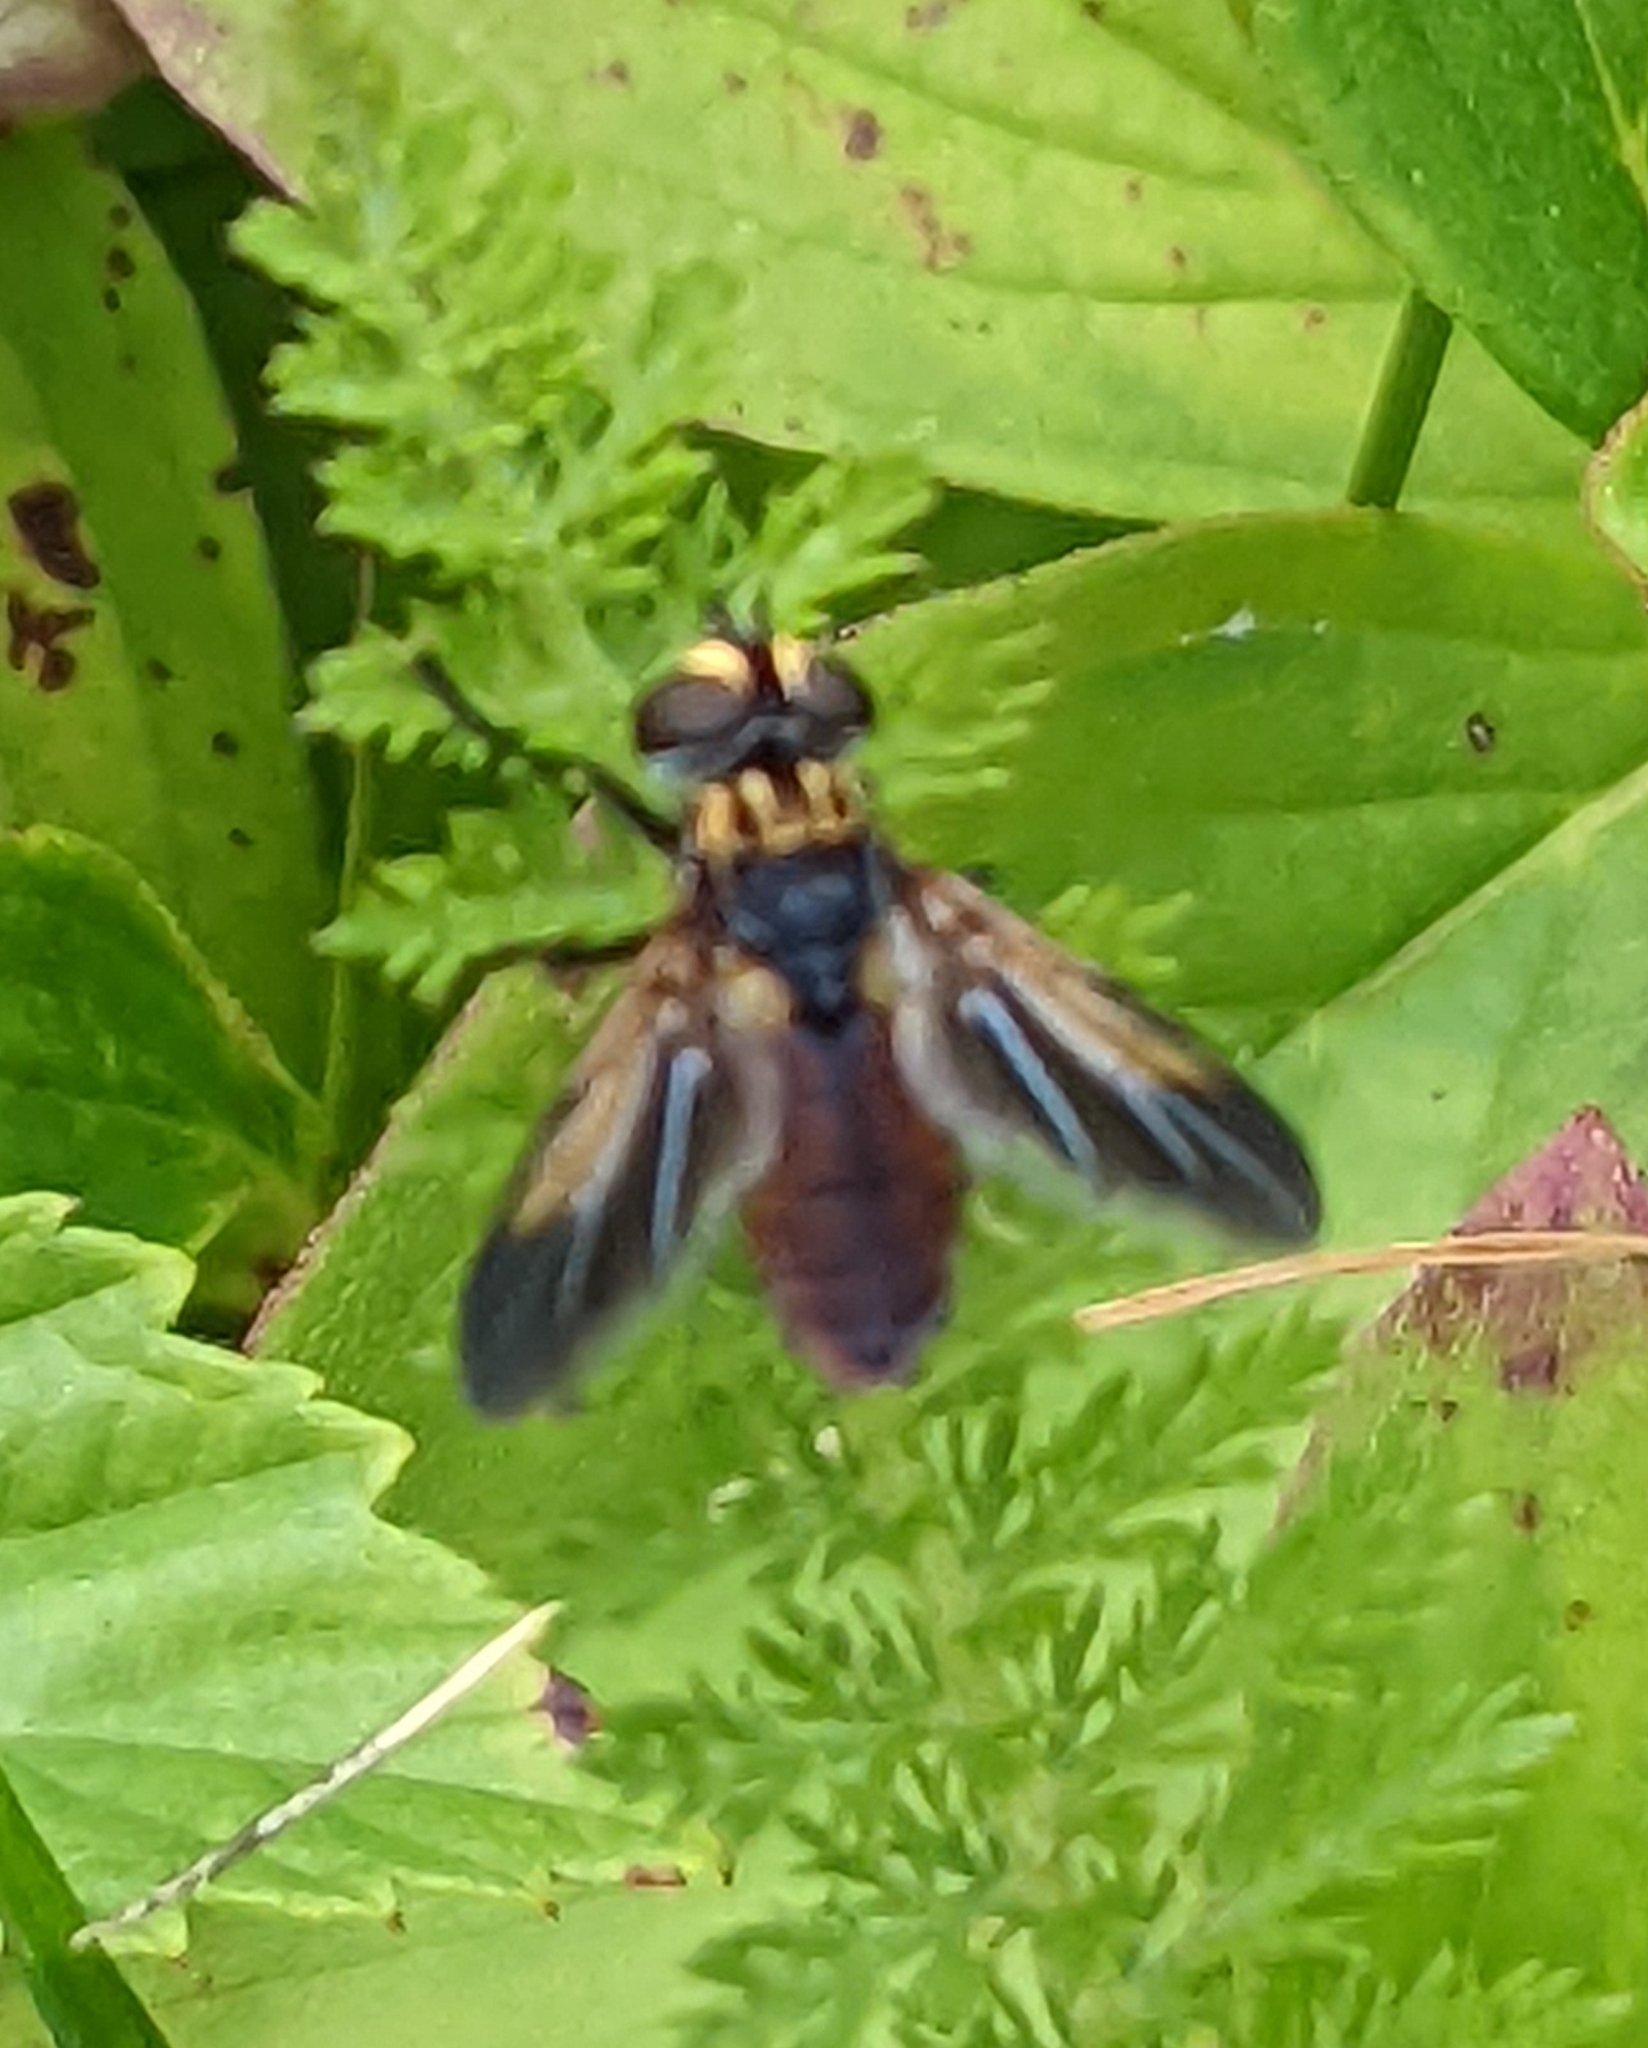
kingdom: Animalia
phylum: Arthropoda
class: Insecta
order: Diptera
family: Tachinidae
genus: Trichopoda
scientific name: Trichopoda pennipes
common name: Tachinid fly
